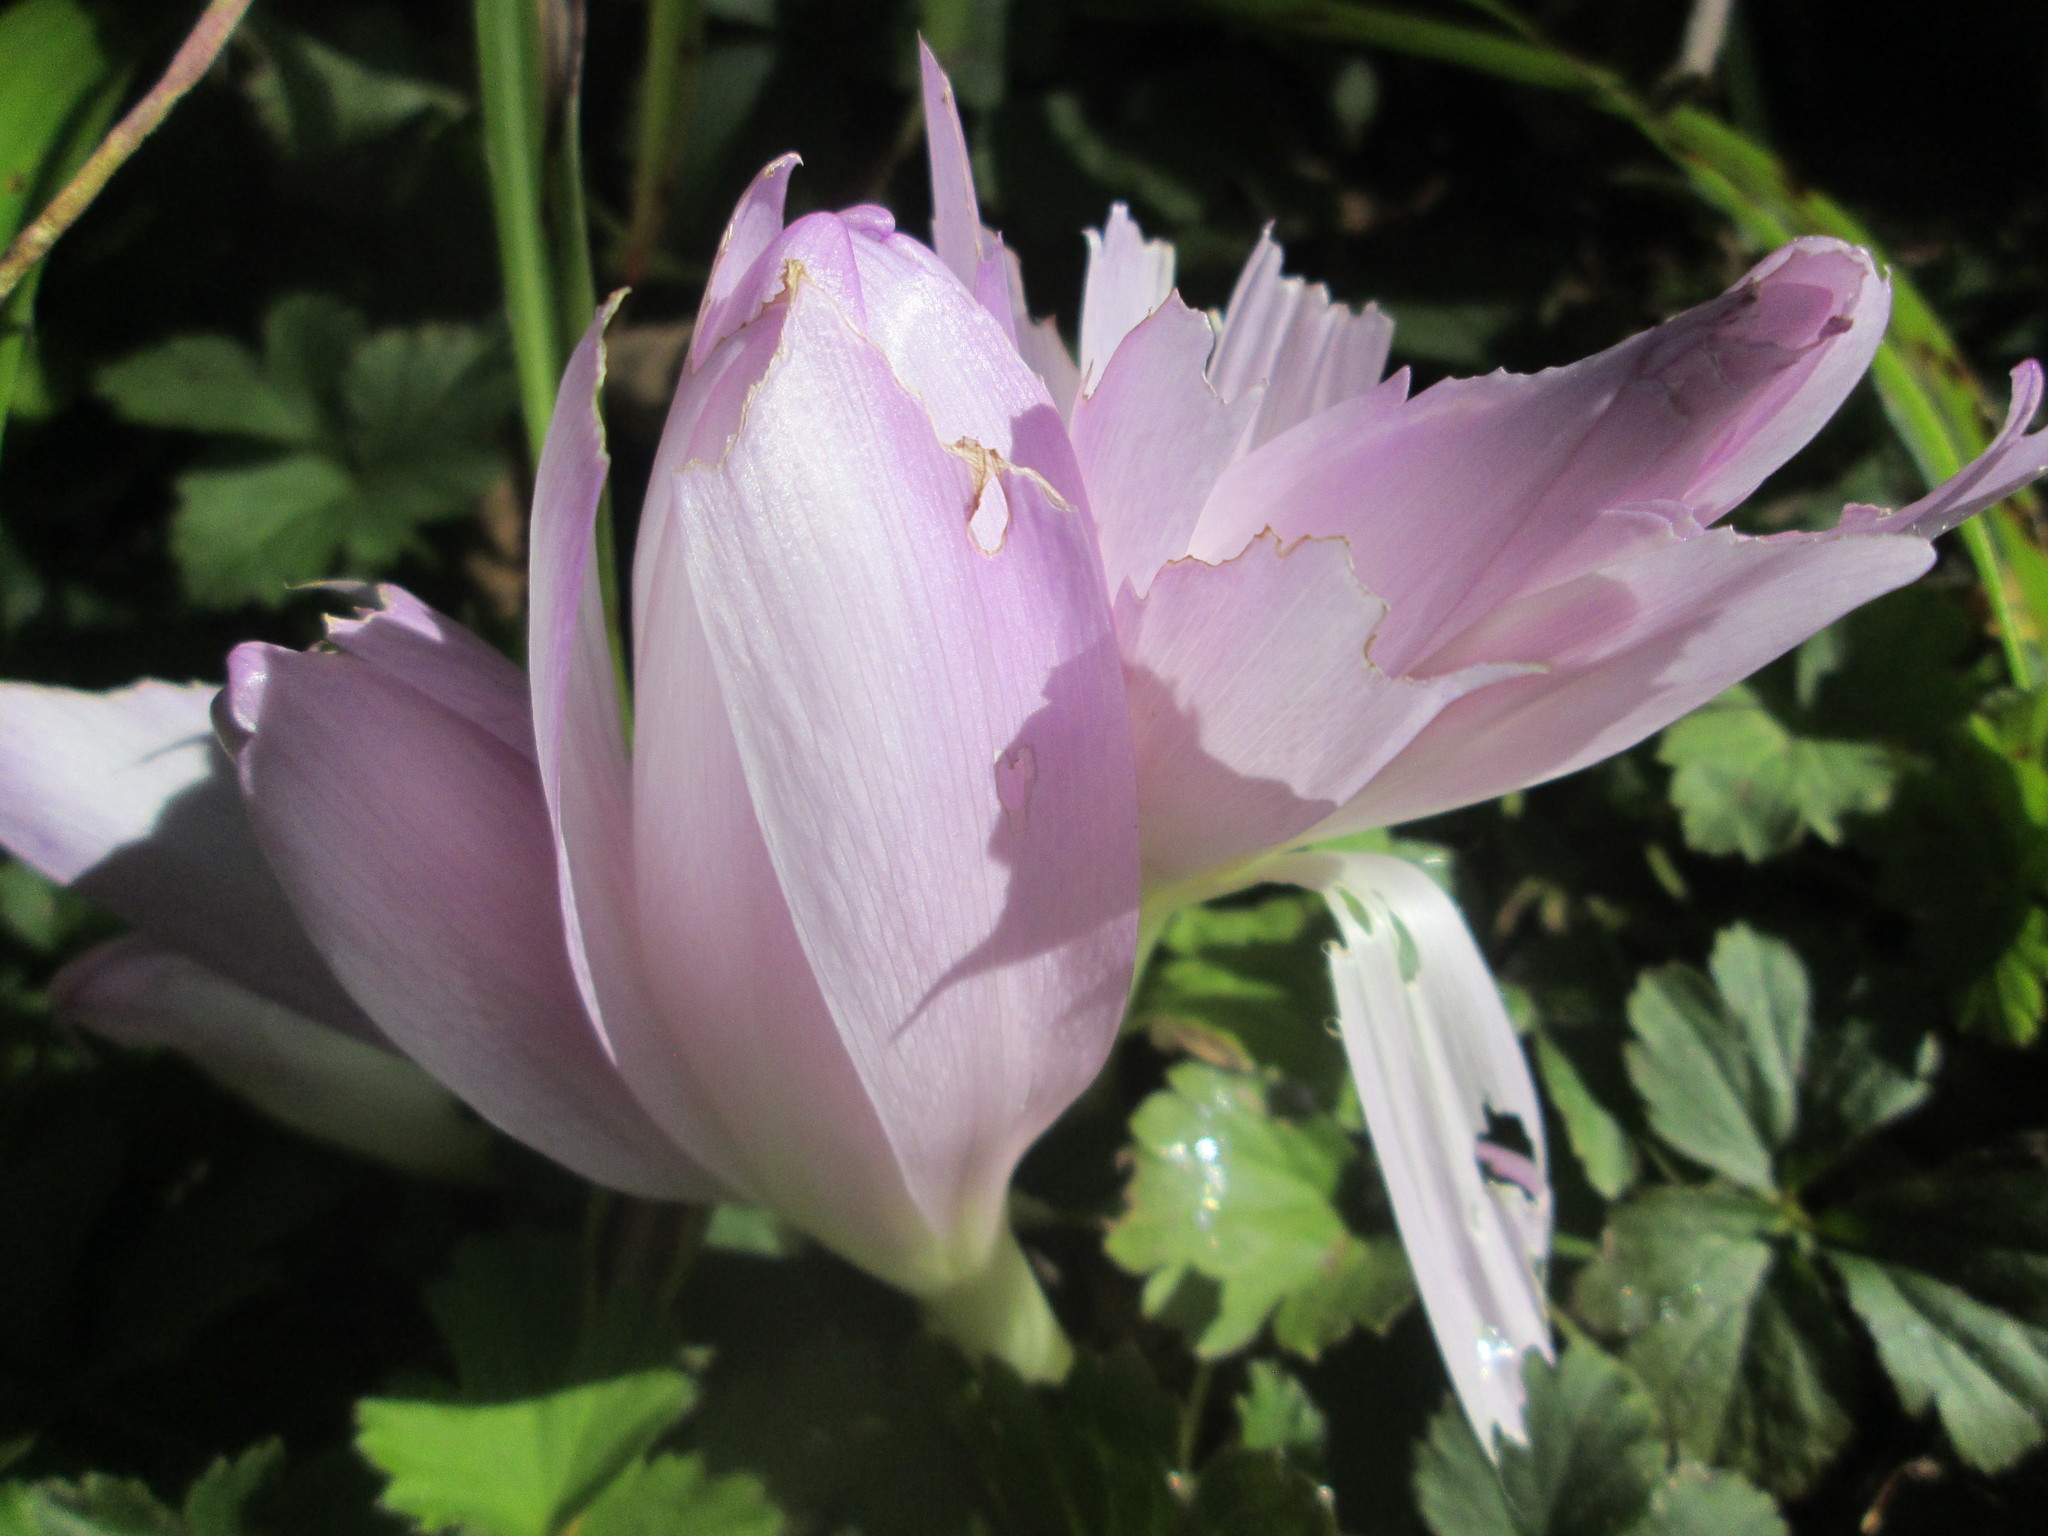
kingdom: Plantae
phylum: Tracheophyta
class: Liliopsida
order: Liliales
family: Colchicaceae
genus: Colchicum
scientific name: Colchicum autumnale
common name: Autumn crocus
